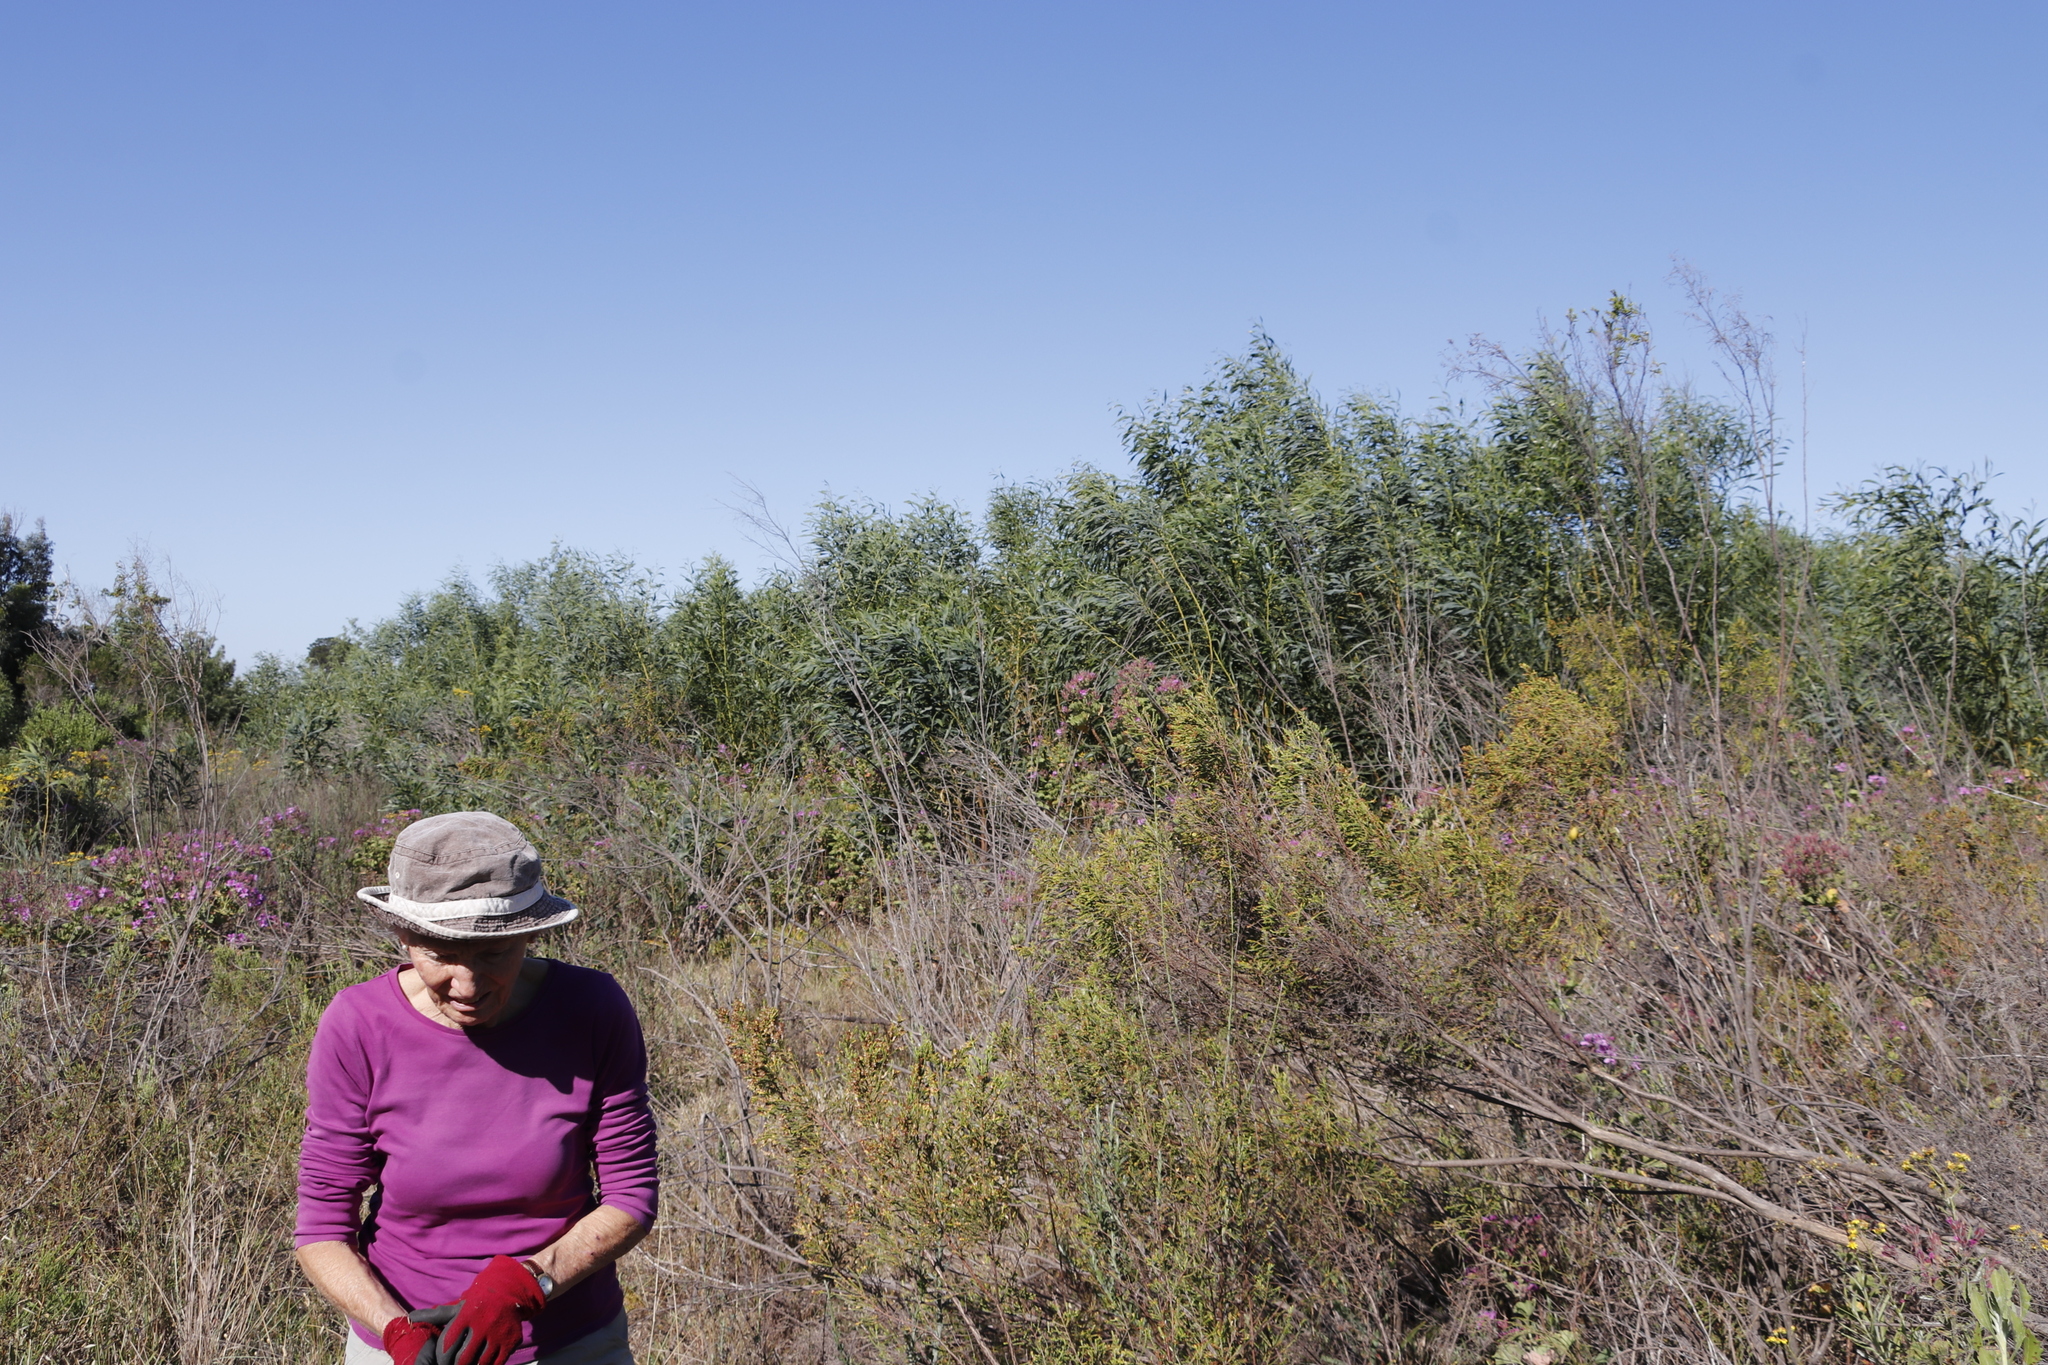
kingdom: Plantae
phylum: Tracheophyta
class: Magnoliopsida
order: Fabales
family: Fabaceae
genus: Acacia
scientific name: Acacia saligna
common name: Orange wattle
